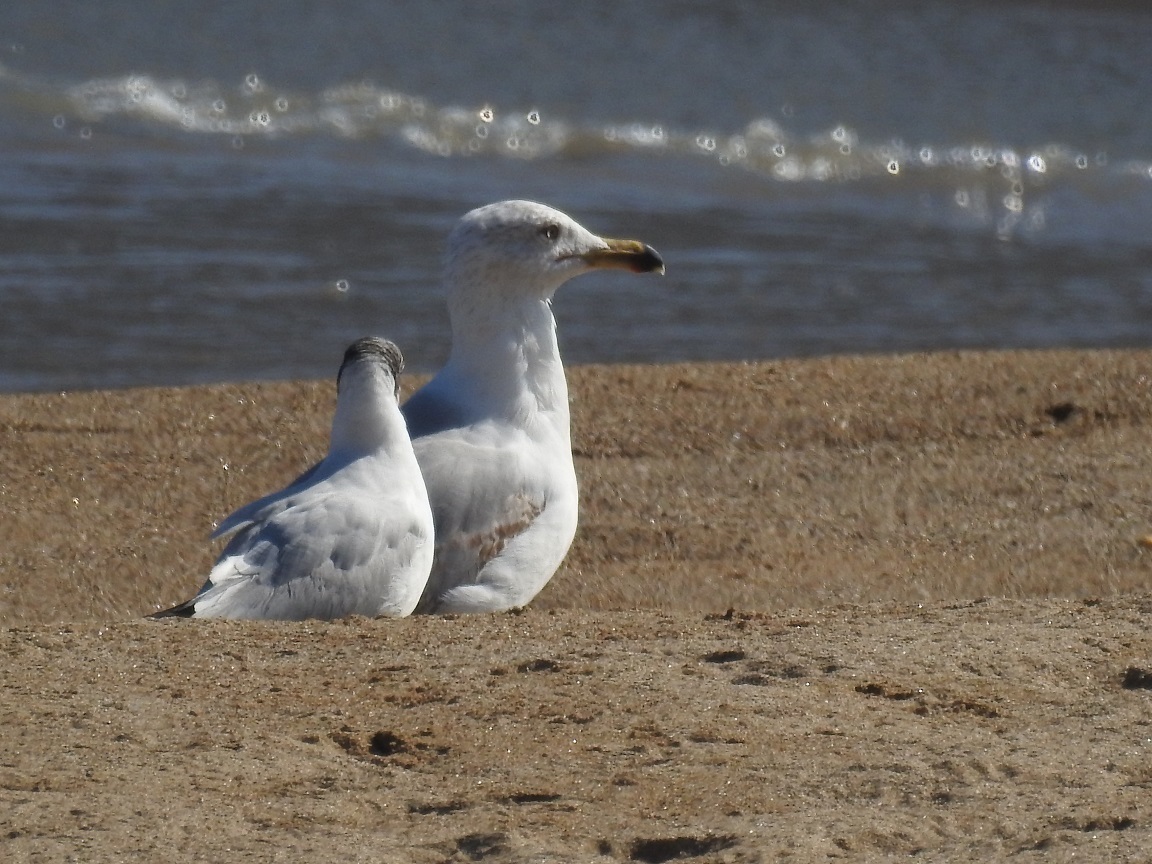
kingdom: Animalia
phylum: Chordata
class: Aves
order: Charadriiformes
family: Laridae
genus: Larus
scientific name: Larus michahellis
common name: Yellow-legged gull
